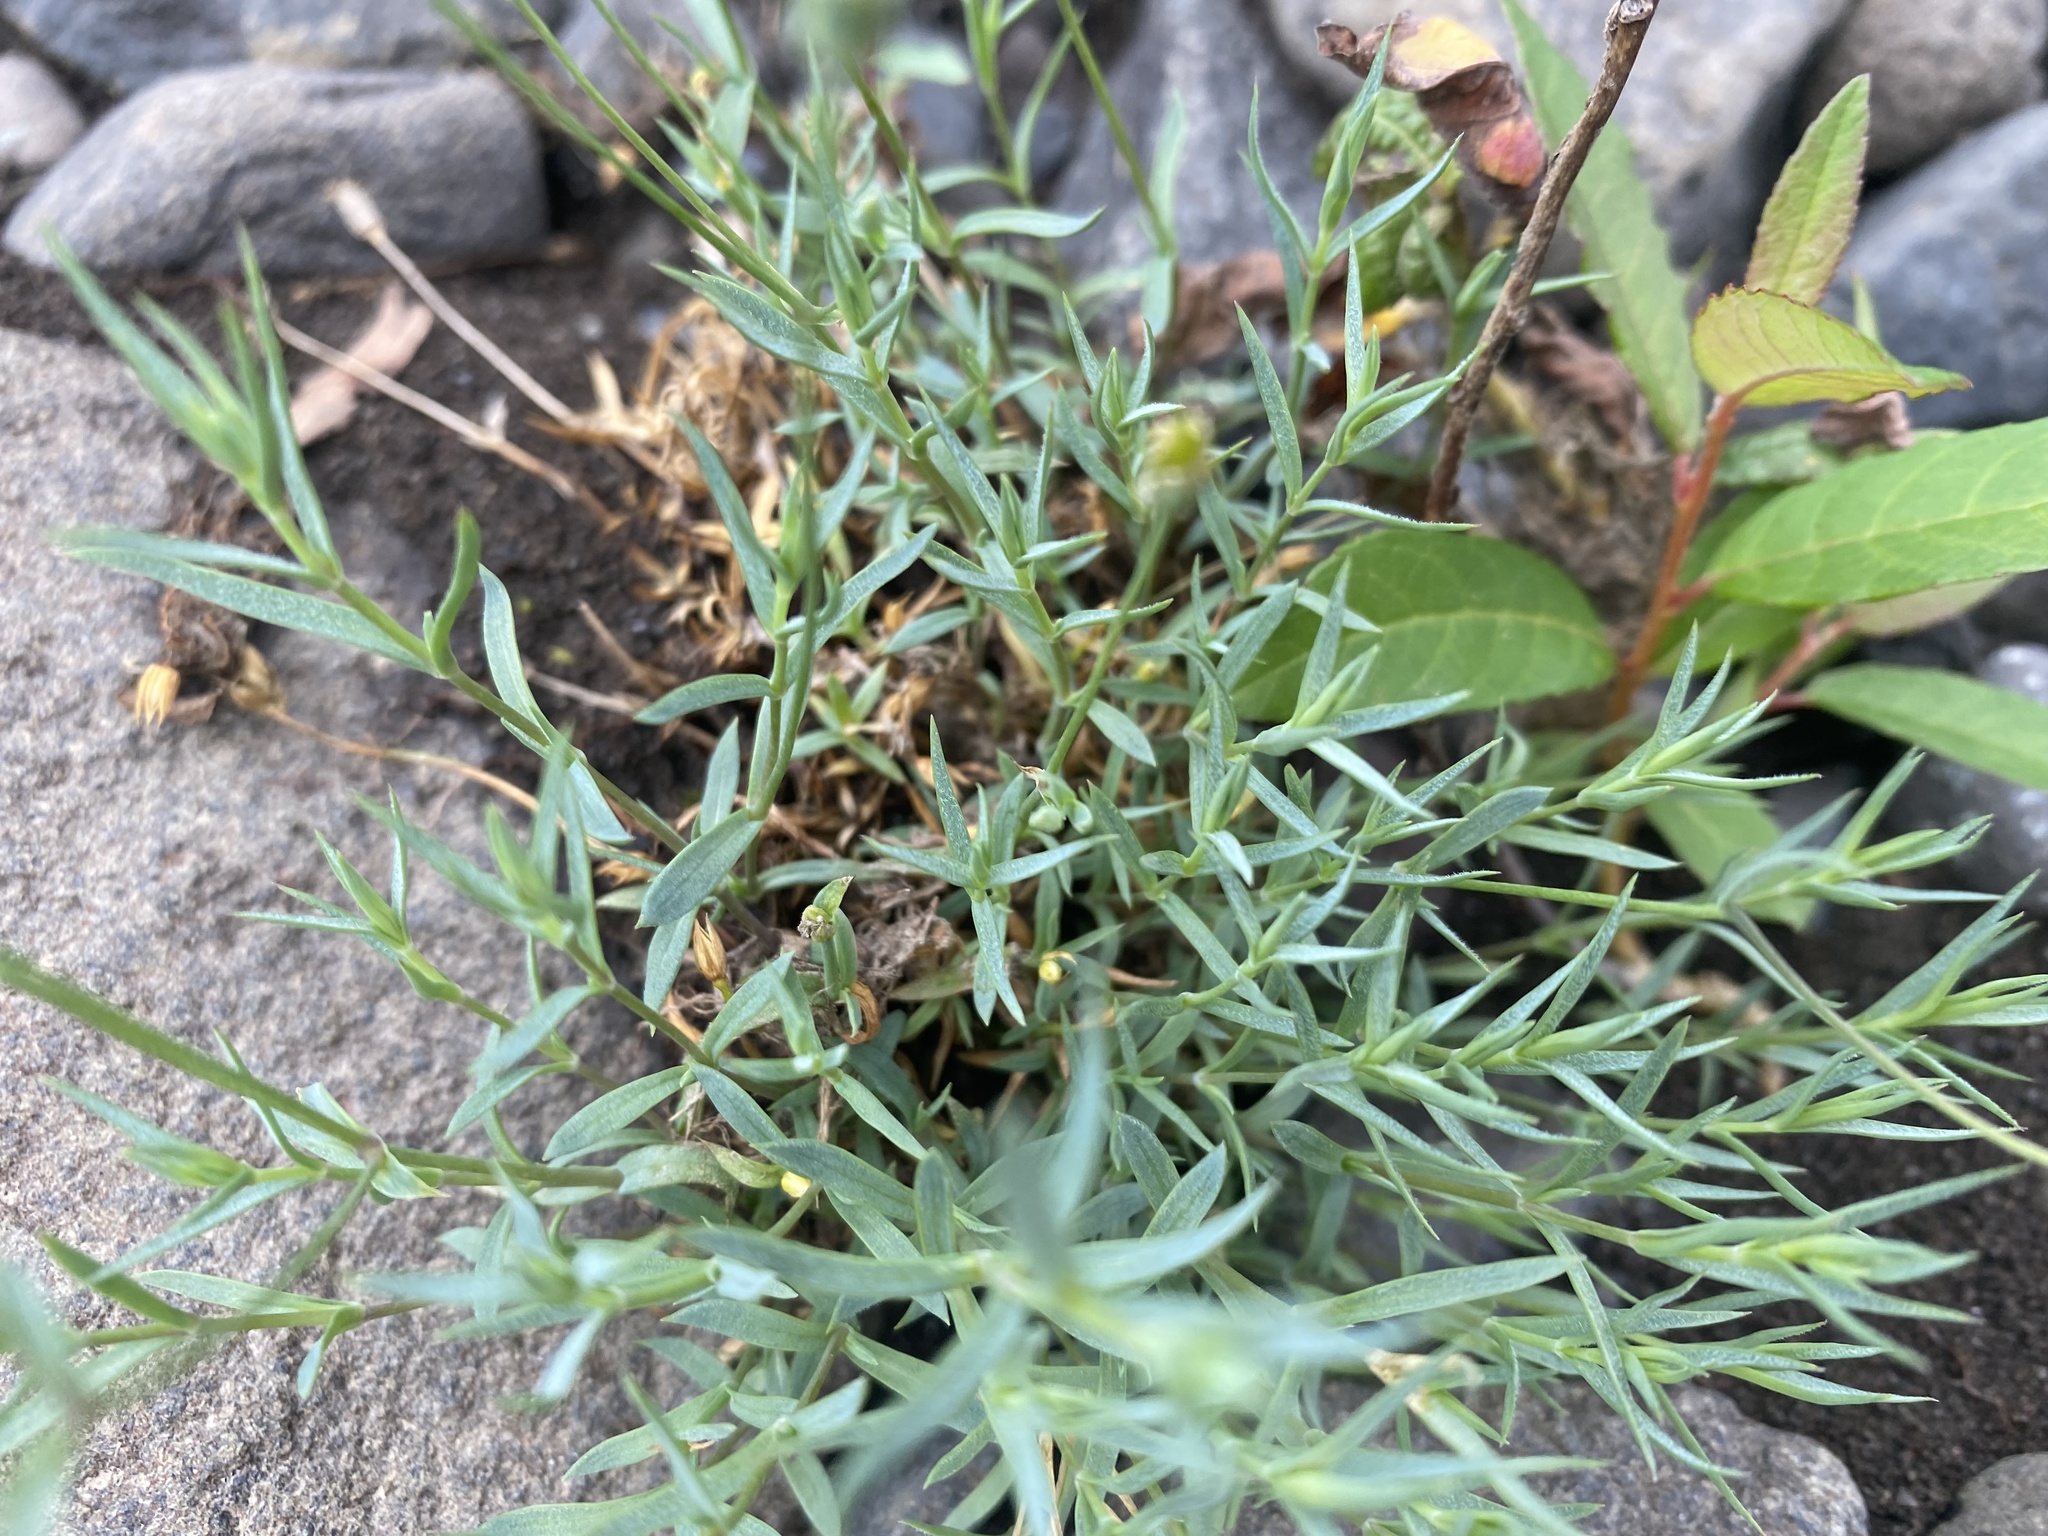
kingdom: Plantae
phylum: Tracheophyta
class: Magnoliopsida
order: Caryophyllales
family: Caryophyllaceae
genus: Stellaria
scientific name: Stellaria fischeriana
